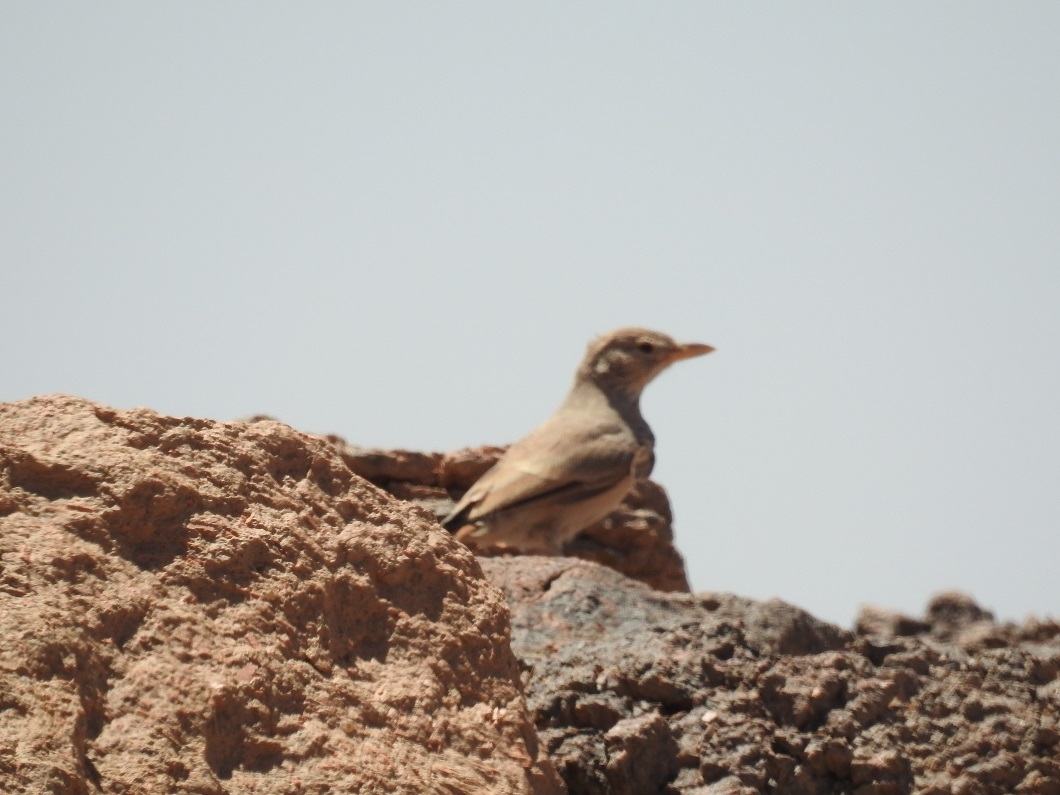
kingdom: Animalia
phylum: Chordata
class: Aves
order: Passeriformes
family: Alaudidae
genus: Ammomanes
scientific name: Ammomanes deserti
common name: Desert lark
